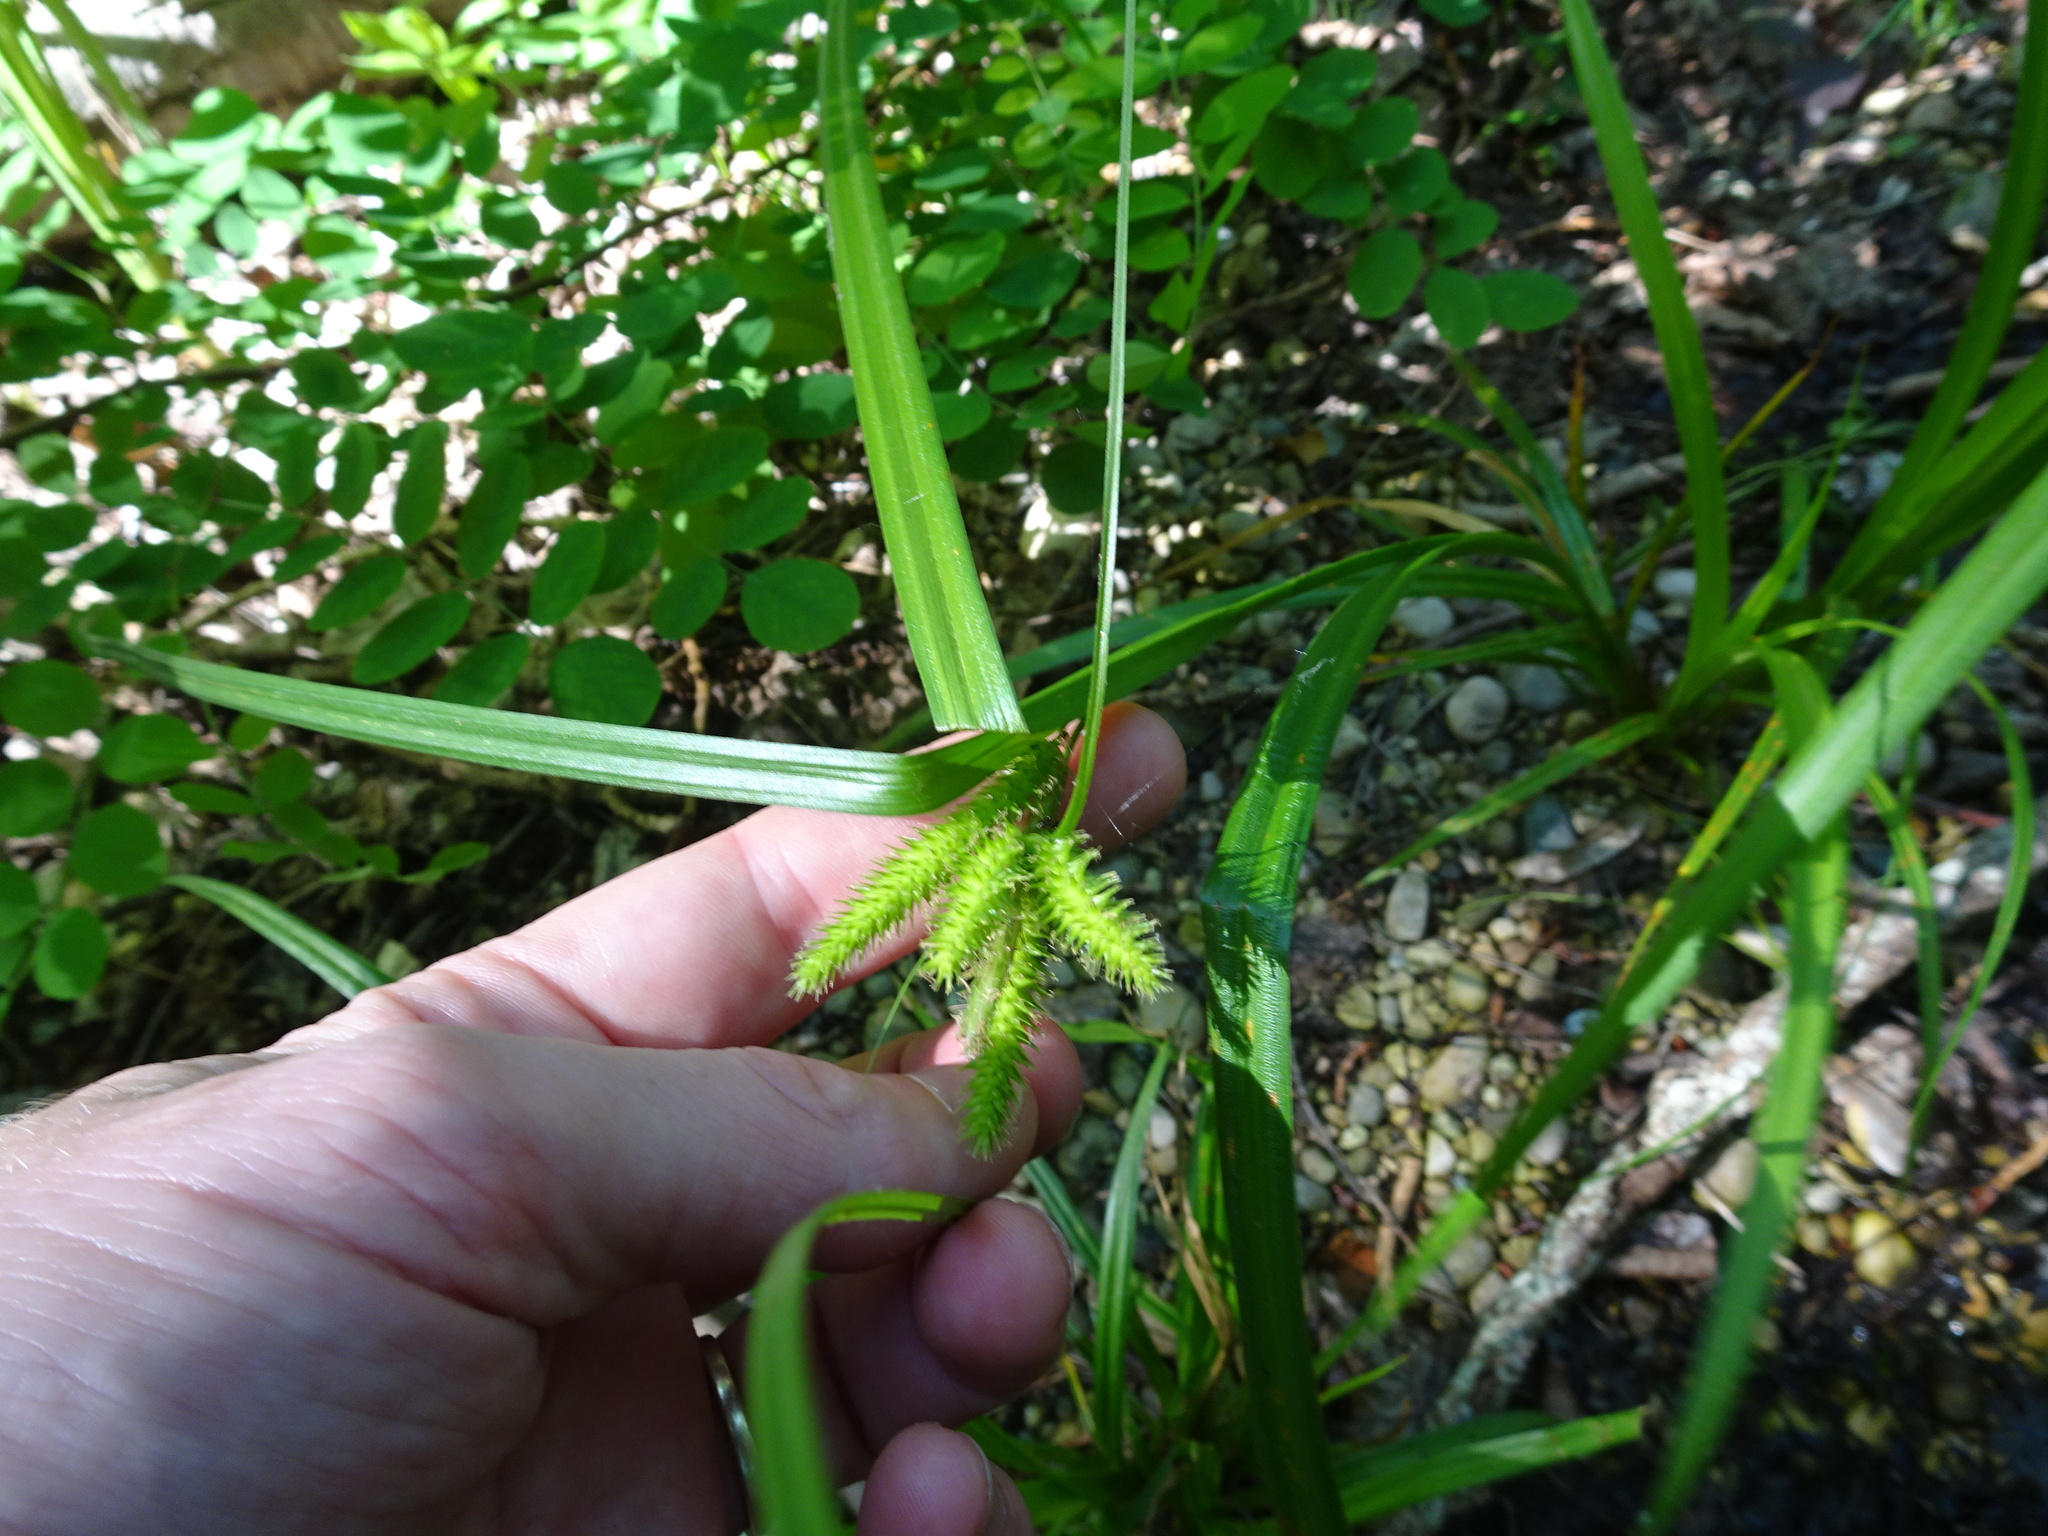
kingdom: Plantae
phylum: Tracheophyta
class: Liliopsida
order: Poales
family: Cyperaceae
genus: Carex
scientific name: Carex pseudocyperus
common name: Cyperus sedge
